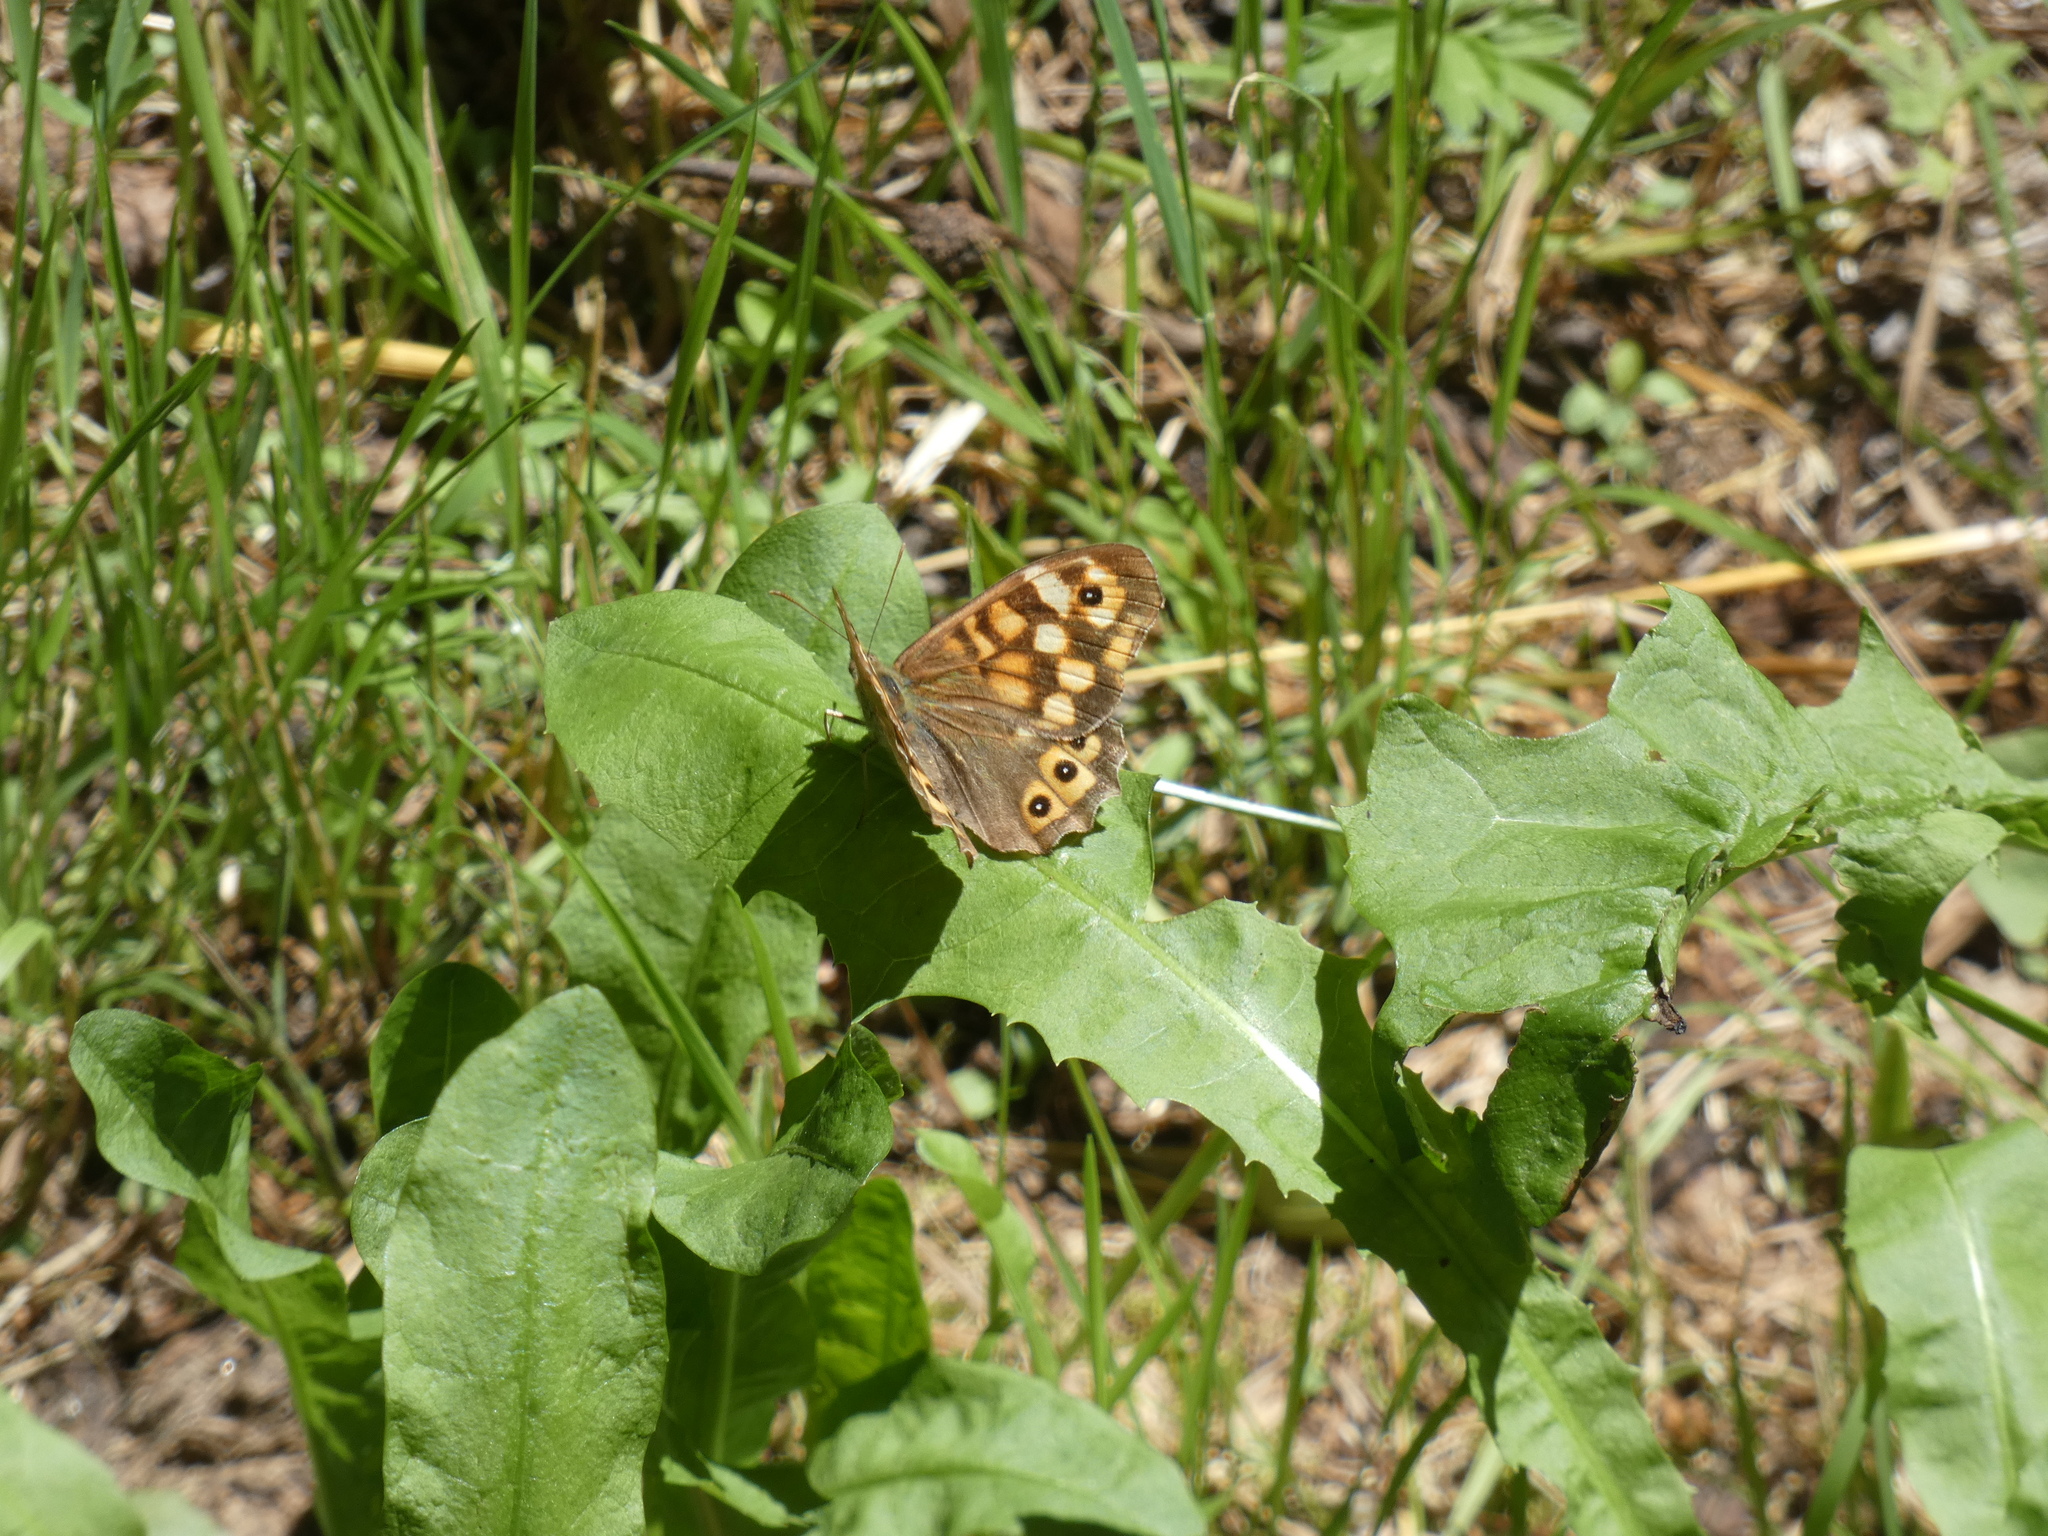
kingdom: Animalia
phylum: Arthropoda
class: Insecta
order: Lepidoptera
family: Nymphalidae
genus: Pararge
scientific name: Pararge aegeria
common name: Speckled wood
